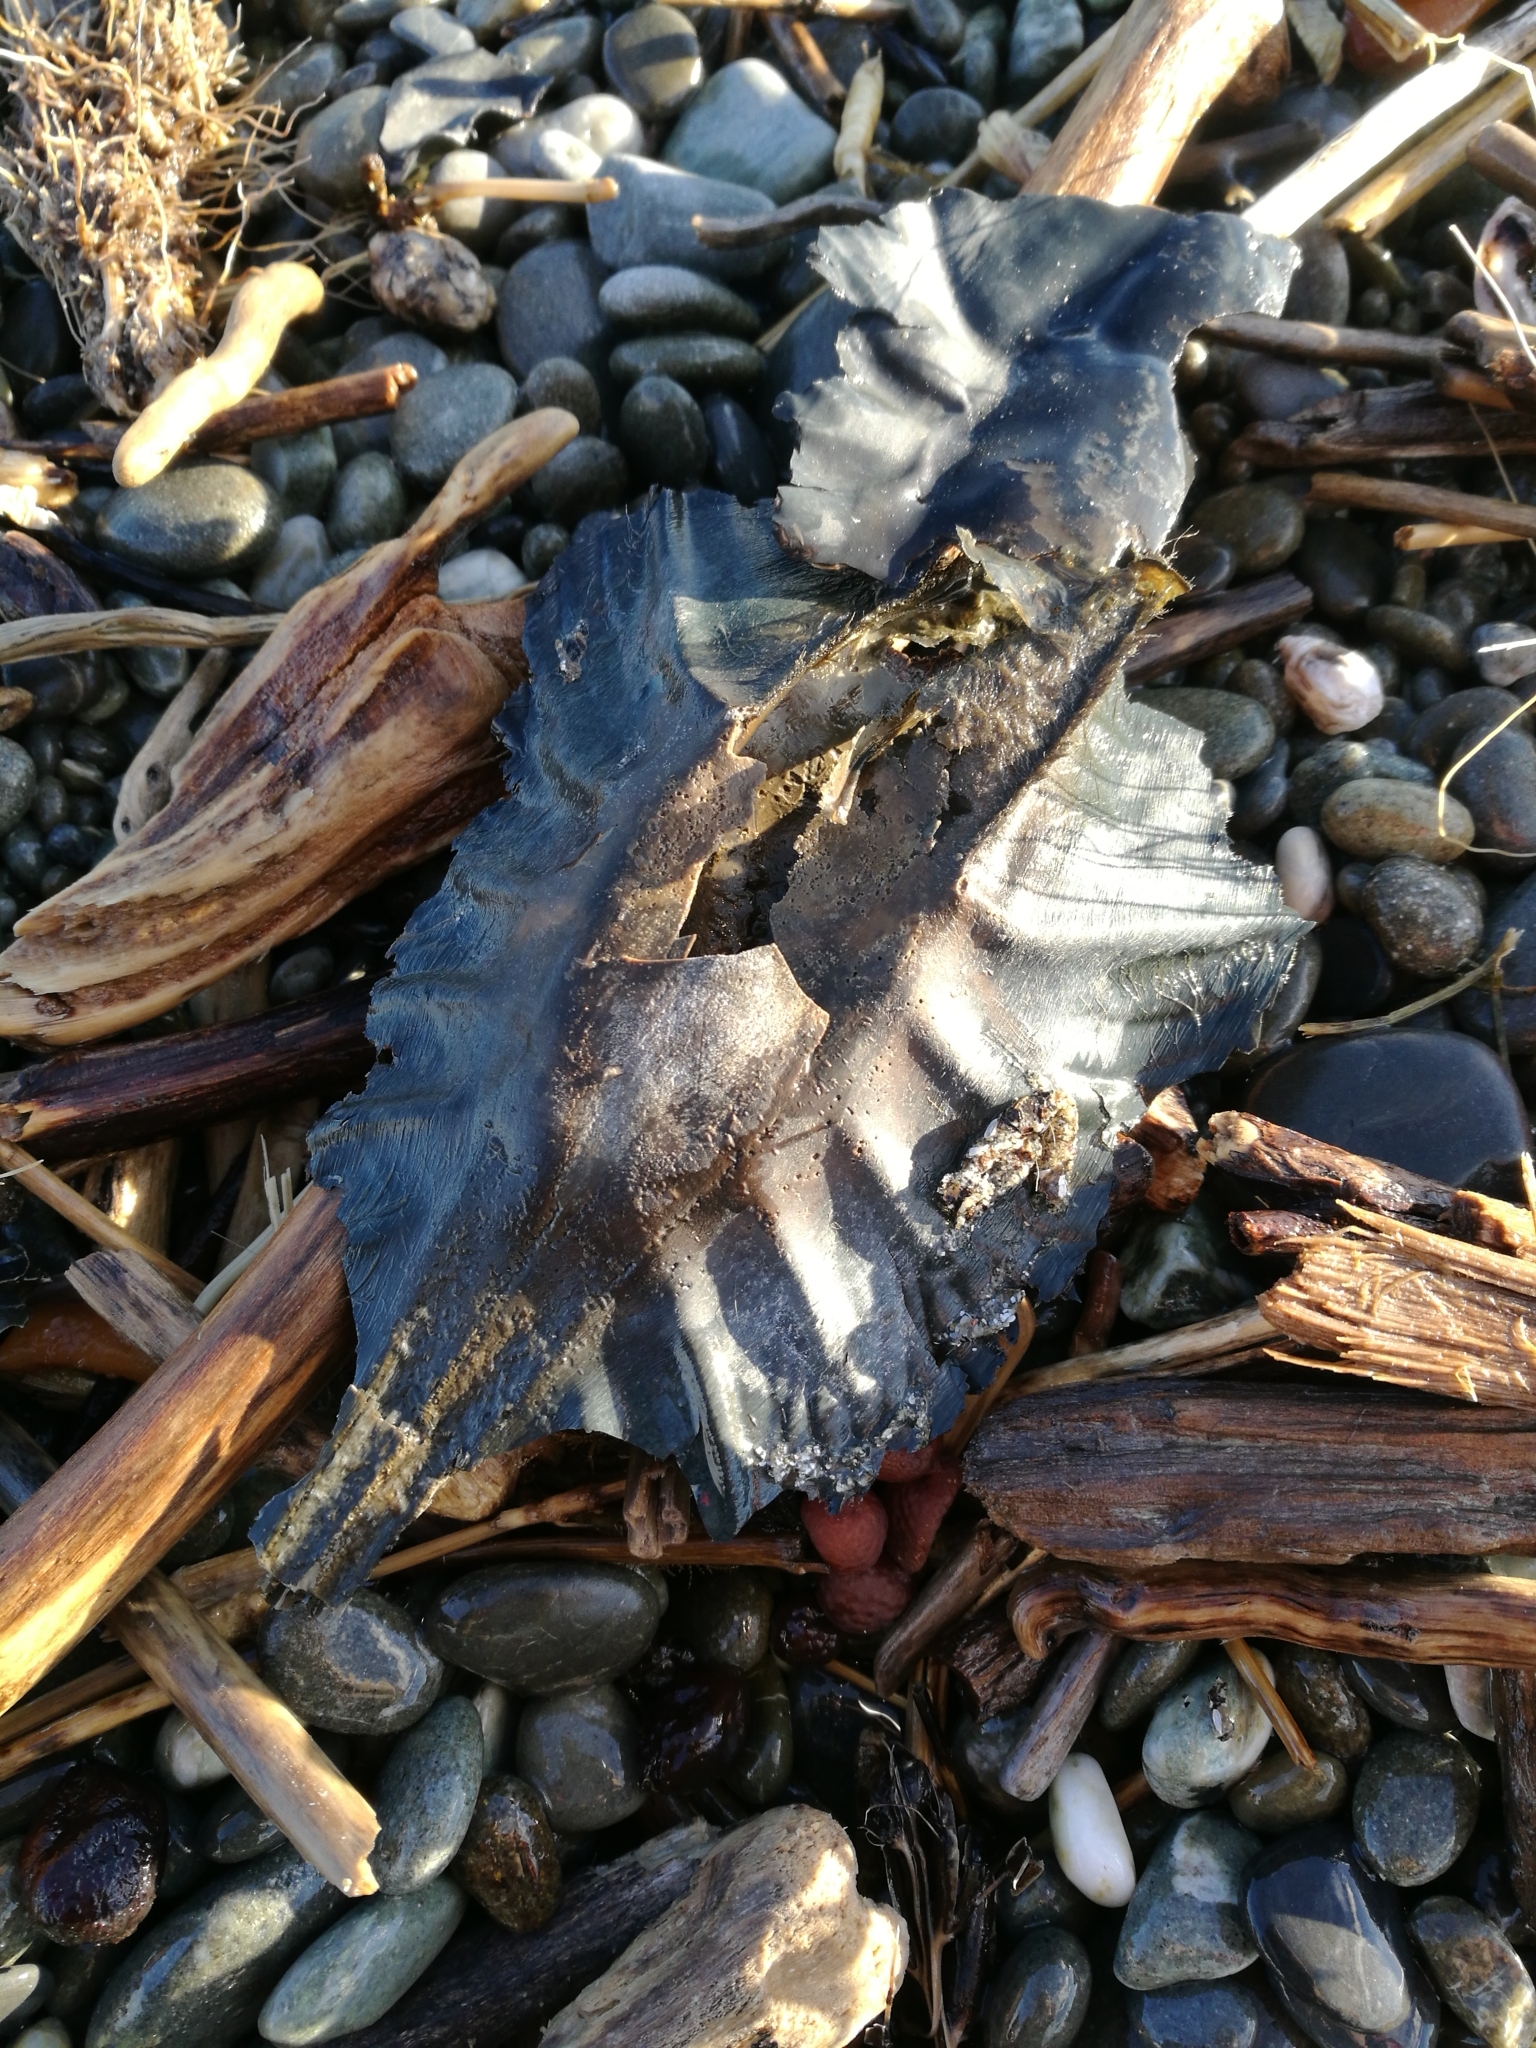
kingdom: Animalia
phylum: Chordata
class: Holocephali
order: Chimaeriformes
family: Callorhinchidae
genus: Callorhinchus
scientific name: Callorhinchus milii
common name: Elephant fish
